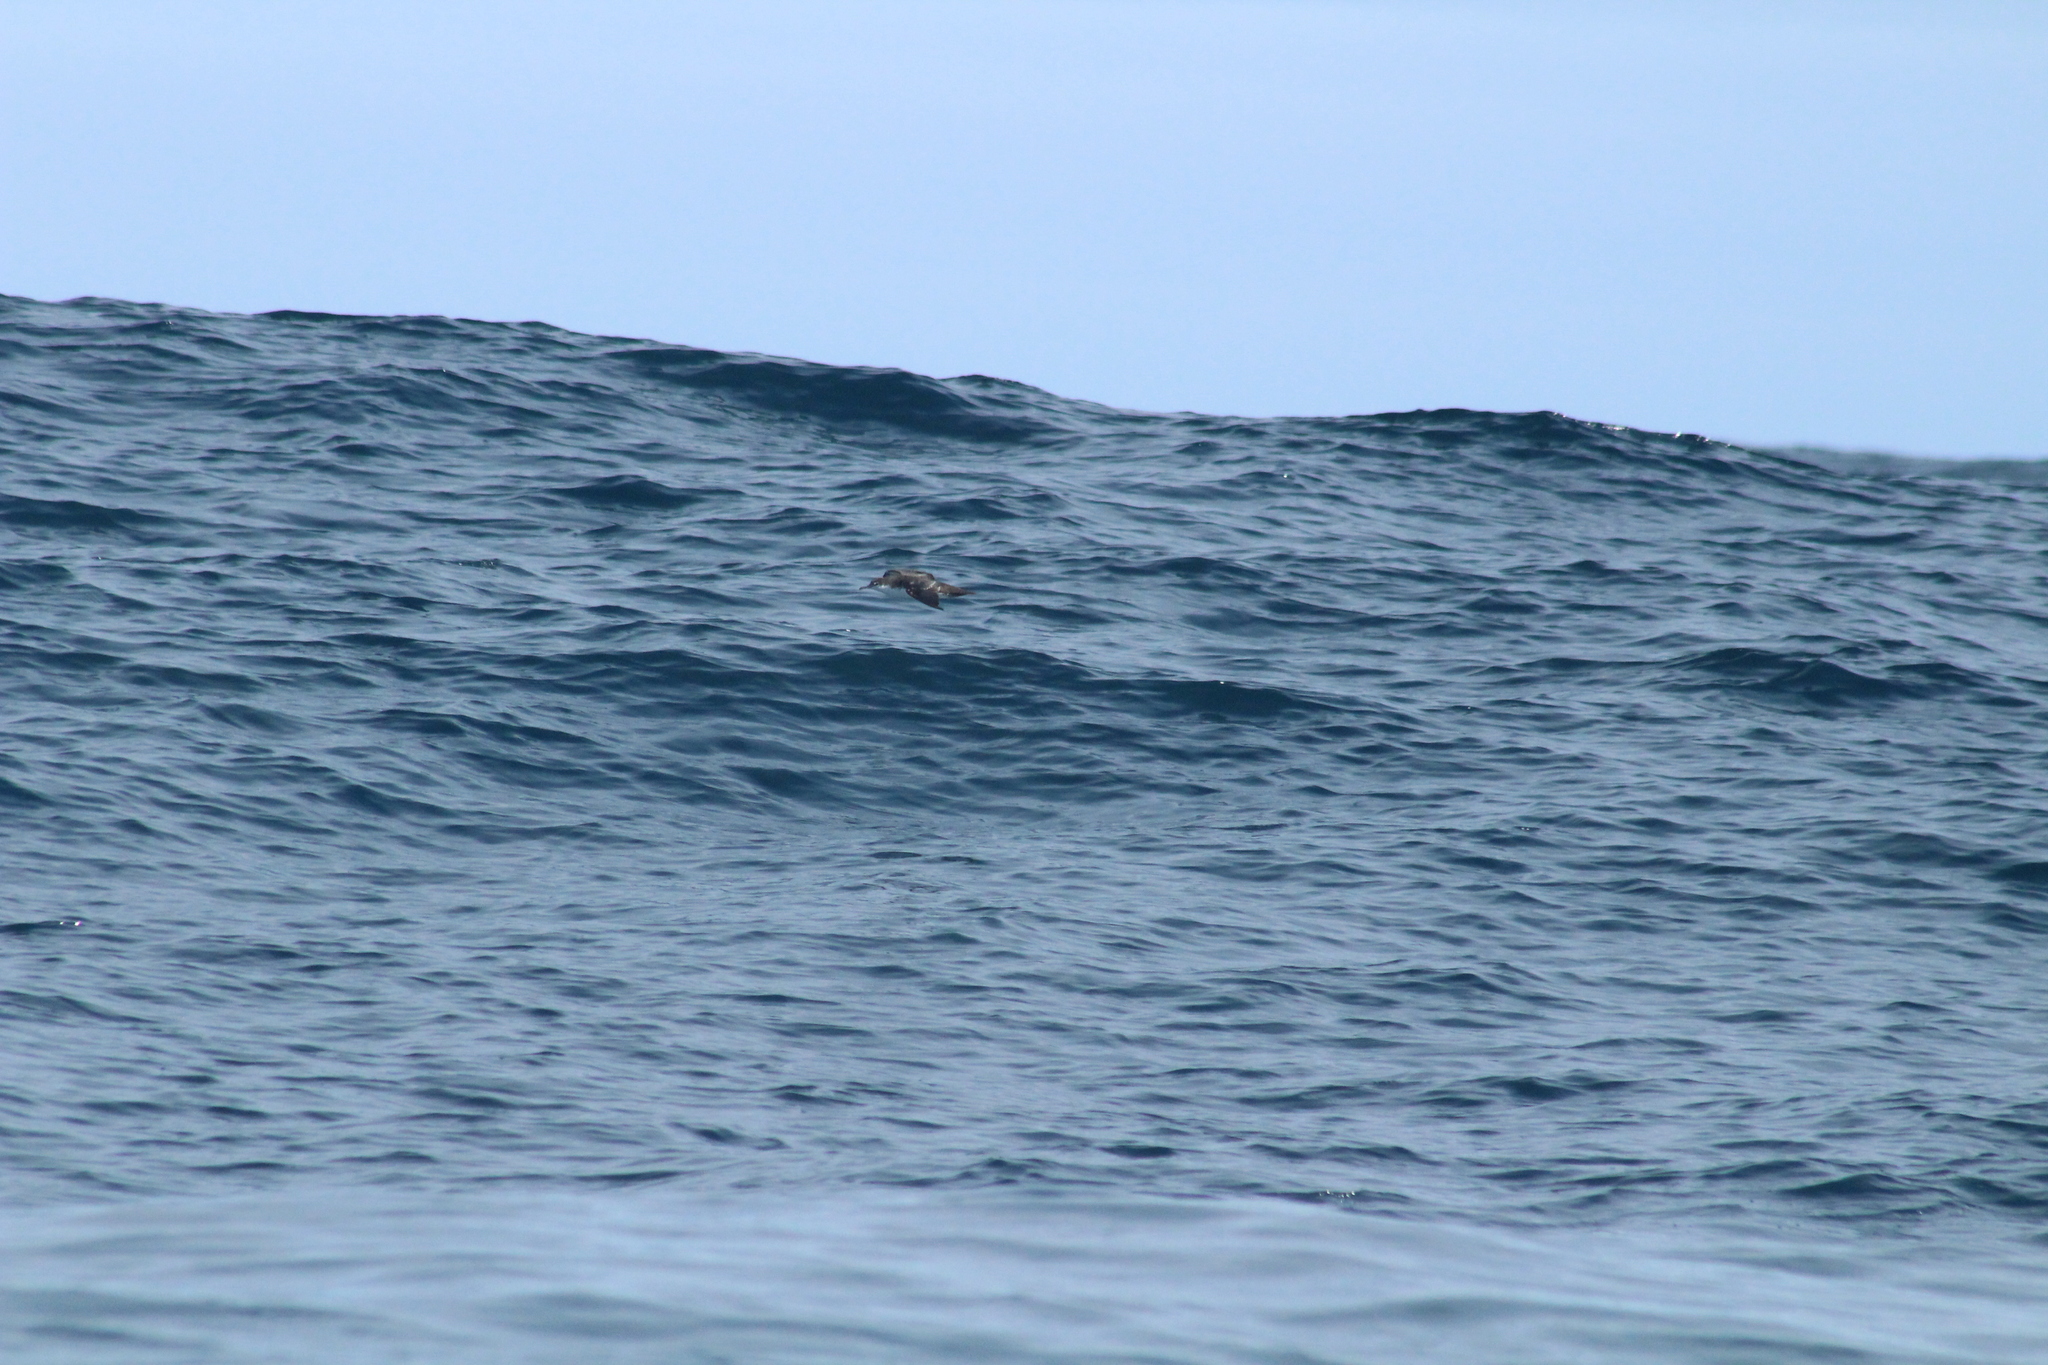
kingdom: Animalia
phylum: Chordata
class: Aves
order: Procellariiformes
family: Procellariidae
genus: Puffinus
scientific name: Puffinus subalaris
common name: Galapagos shearwater
